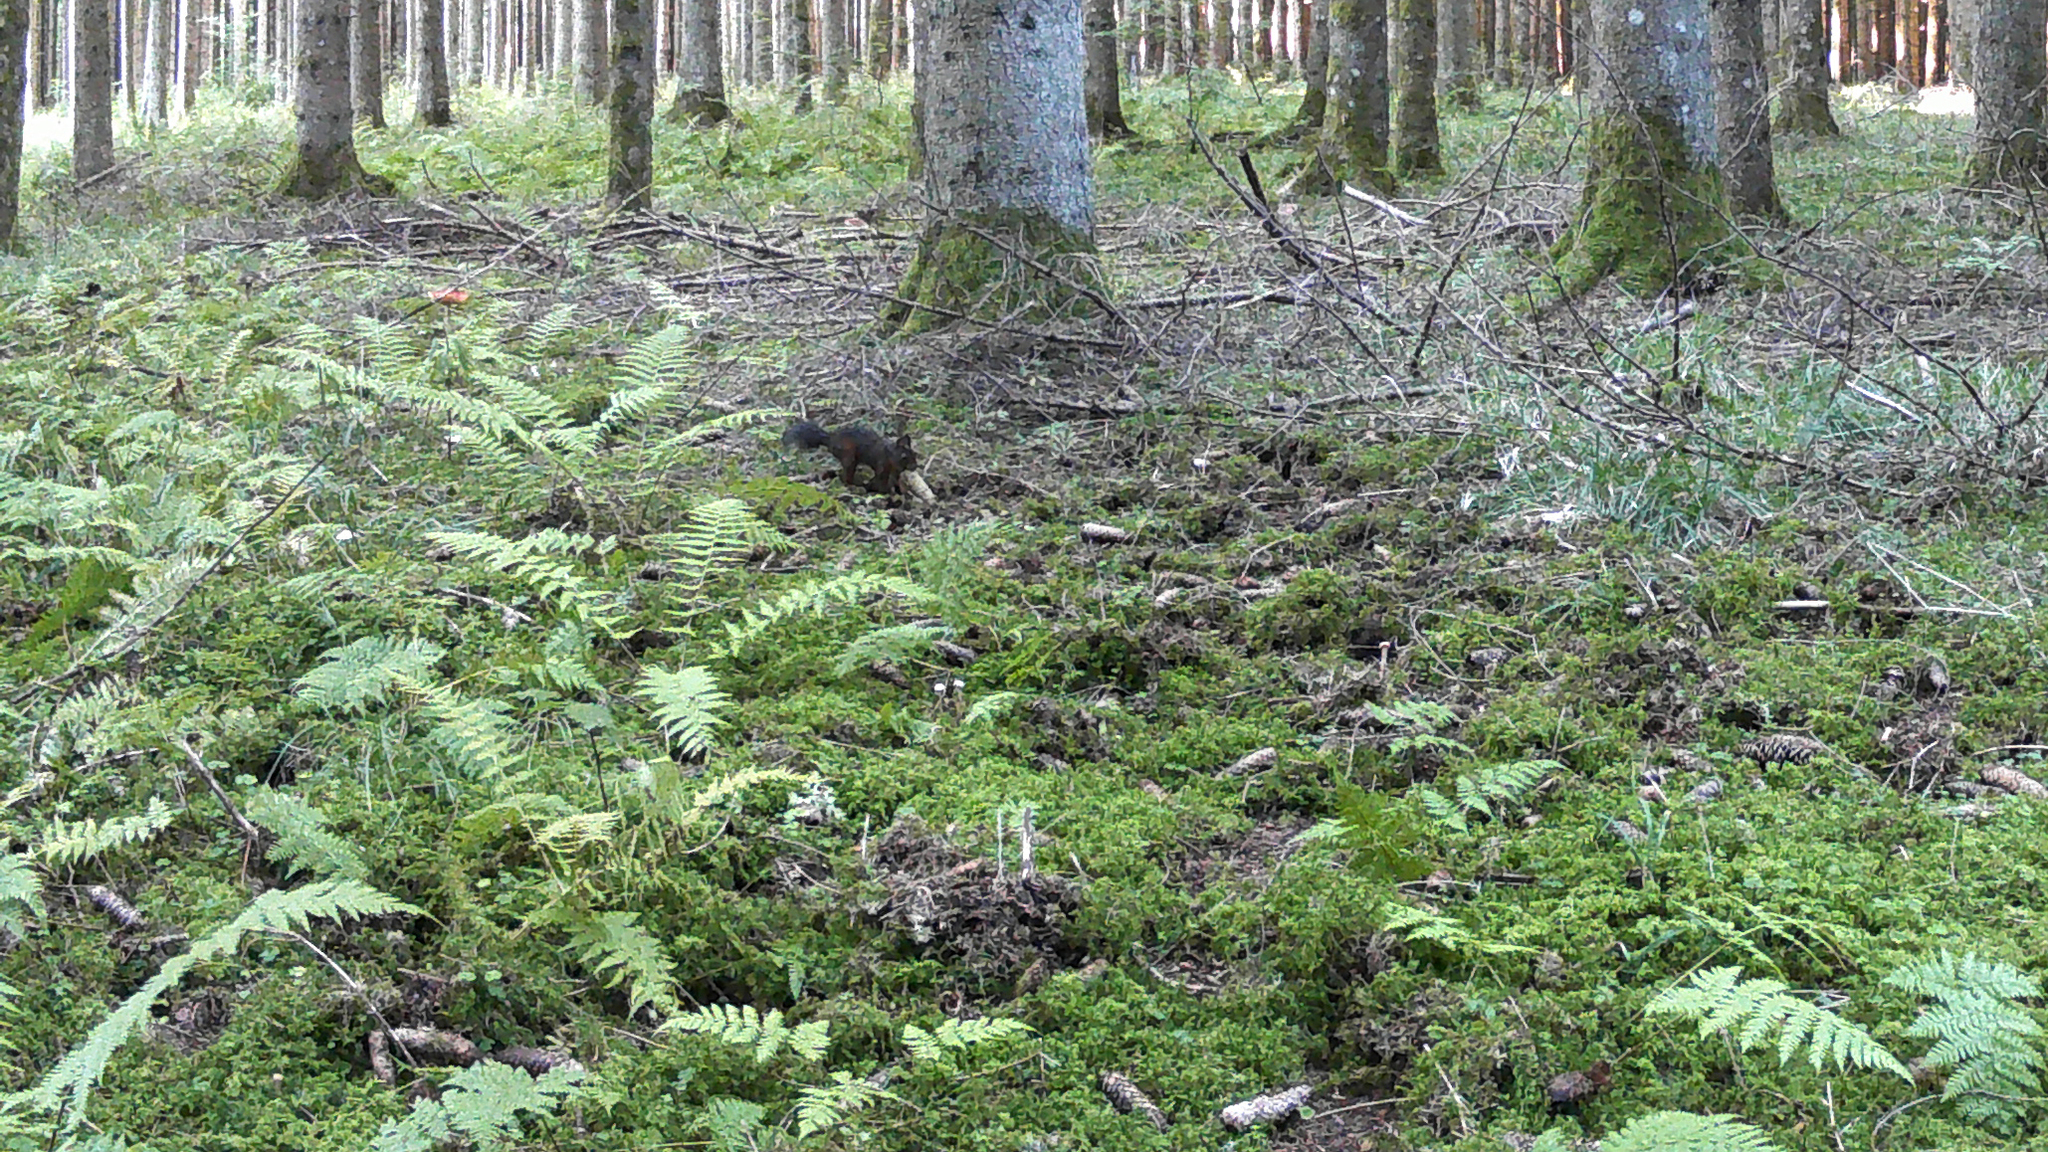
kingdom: Animalia
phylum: Chordata
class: Mammalia
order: Rodentia
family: Sciuridae
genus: Sciurus
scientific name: Sciurus vulgaris
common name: Eurasian red squirrel
